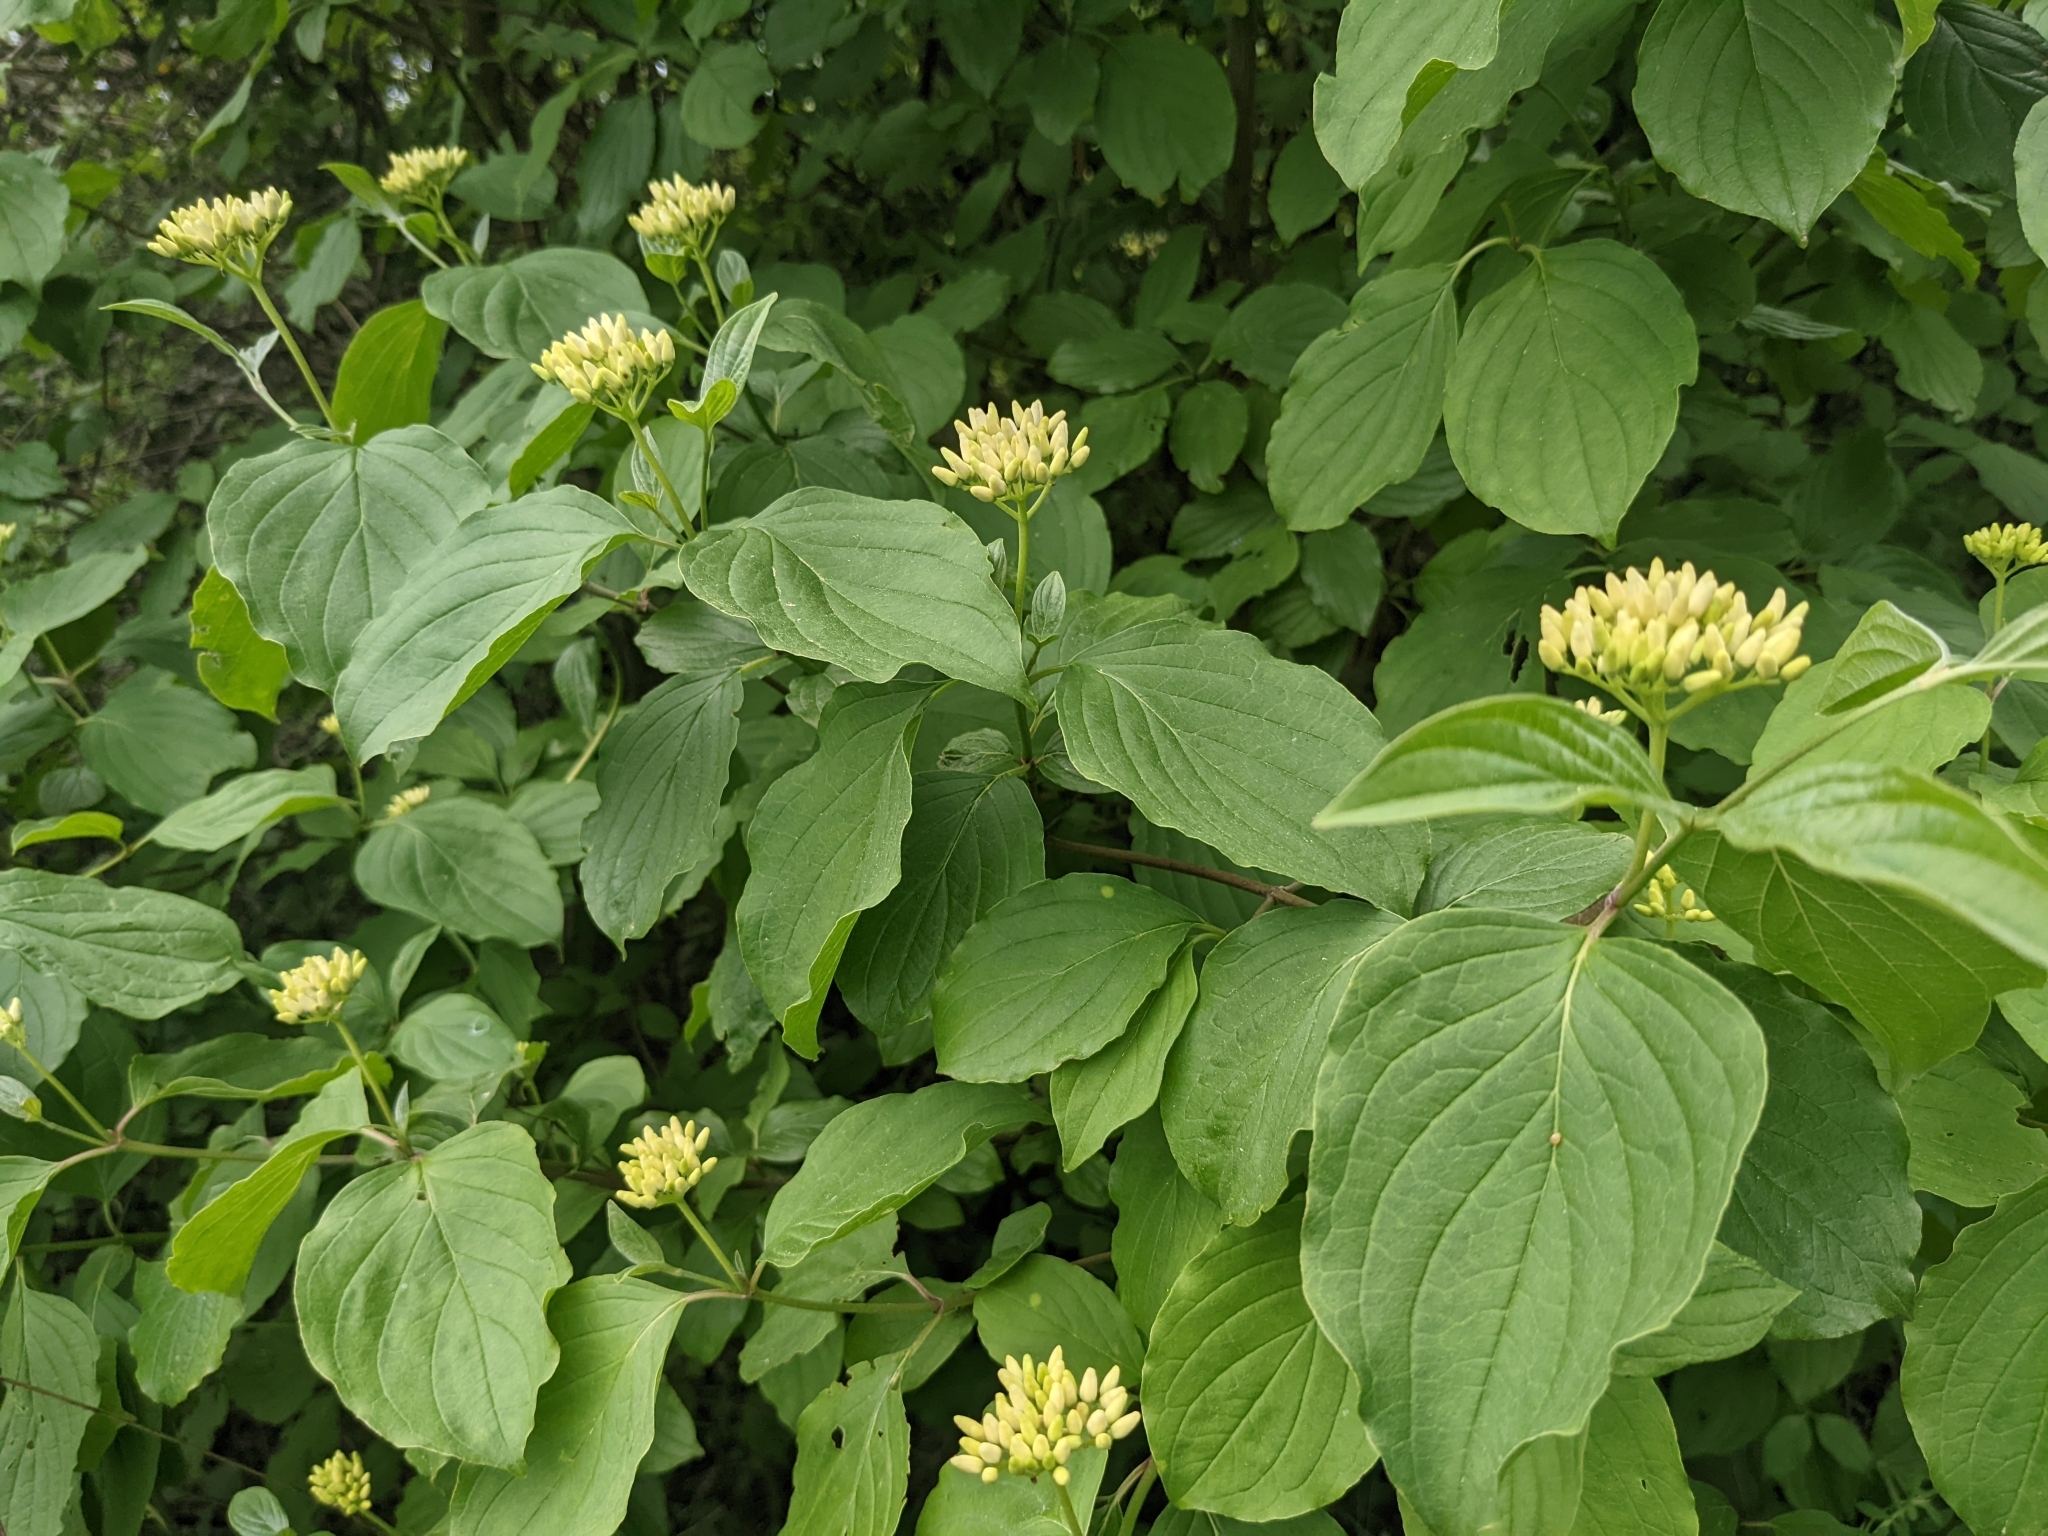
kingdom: Plantae
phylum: Tracheophyta
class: Magnoliopsida
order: Cornales
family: Cornaceae
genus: Cornus
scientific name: Cornus sanguinea
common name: Dogwood
